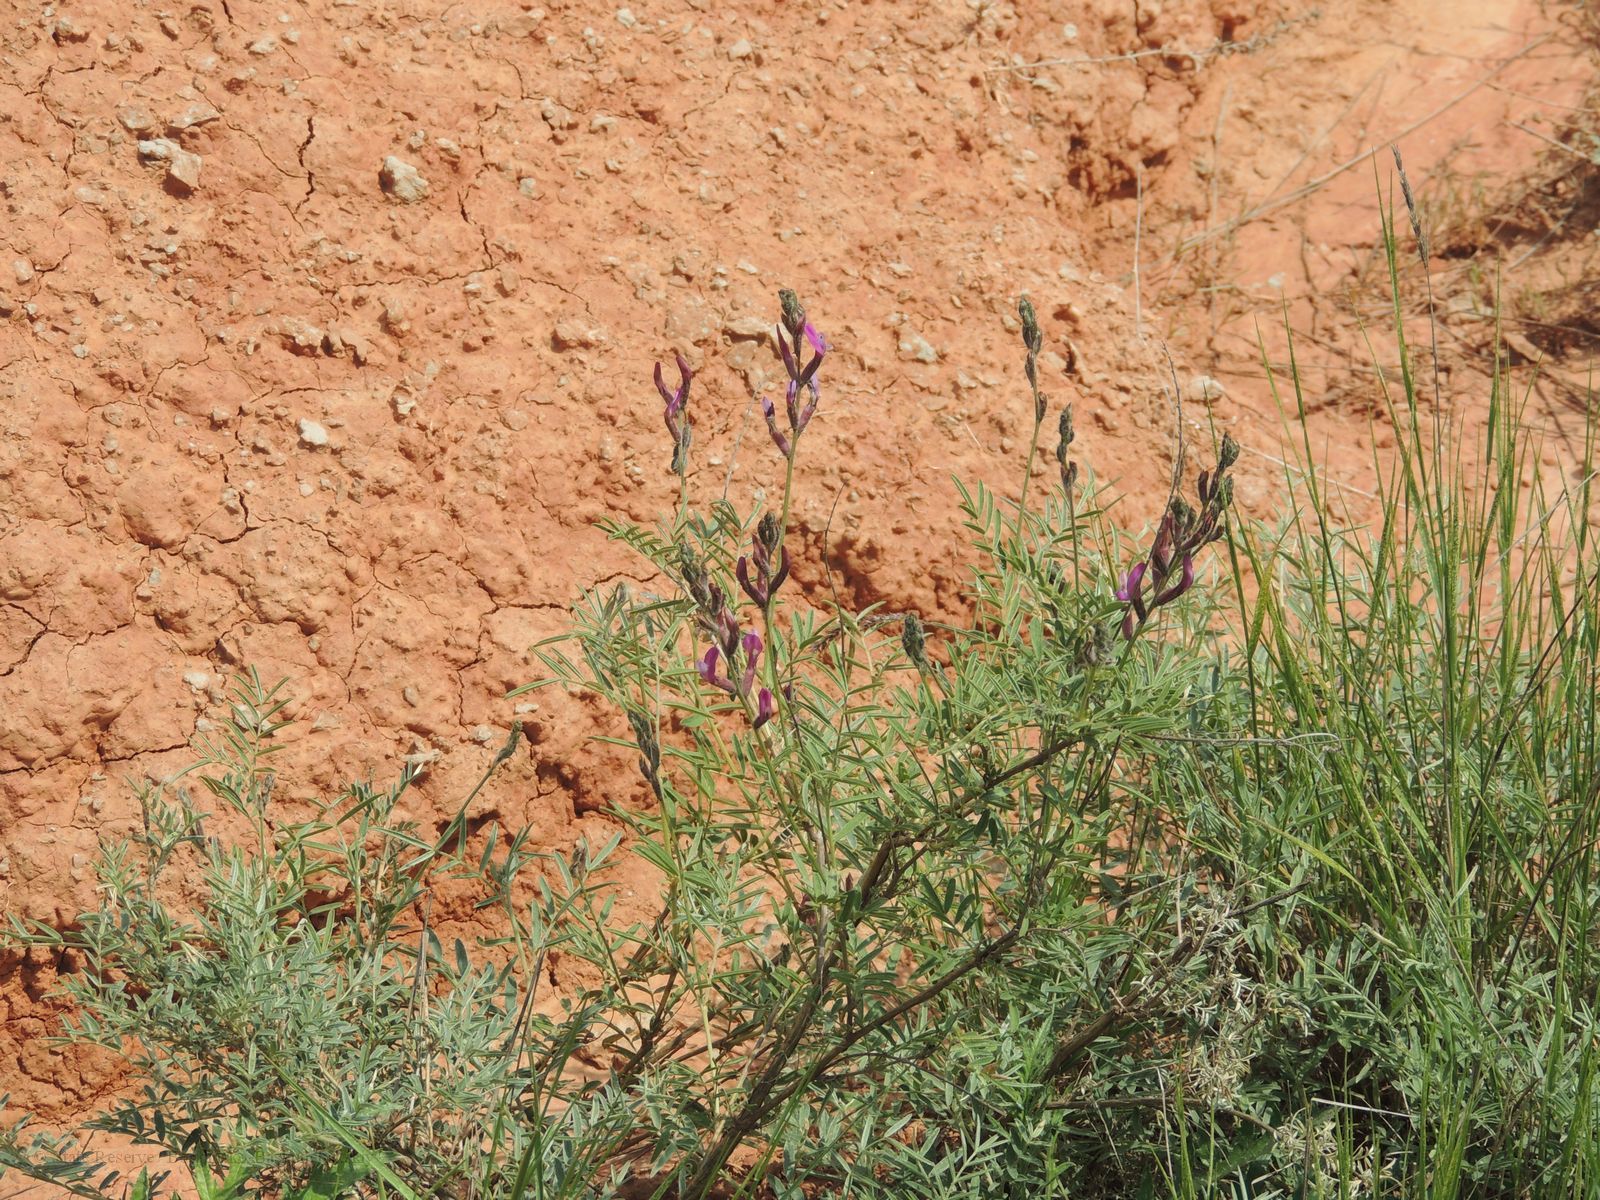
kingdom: Plantae
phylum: Tracheophyta
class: Magnoliopsida
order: Fabales
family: Fabaceae
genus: Astragalus
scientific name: Astragalus brachylobus
